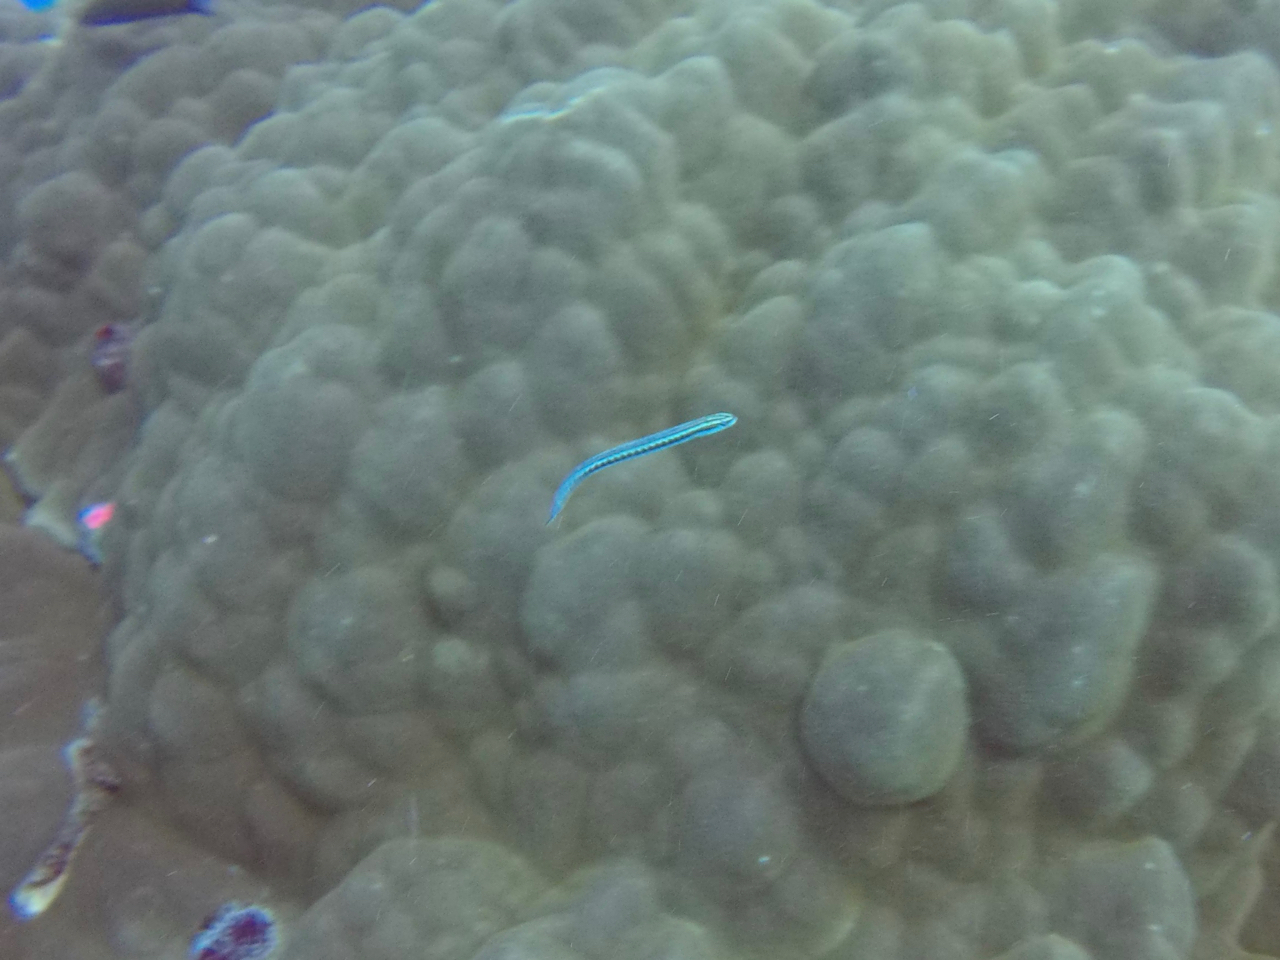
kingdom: Animalia
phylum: Chordata
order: Perciformes
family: Blenniidae
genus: Plagiotremus
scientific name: Plagiotremus tapeinosoma
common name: Hit and run blenny
